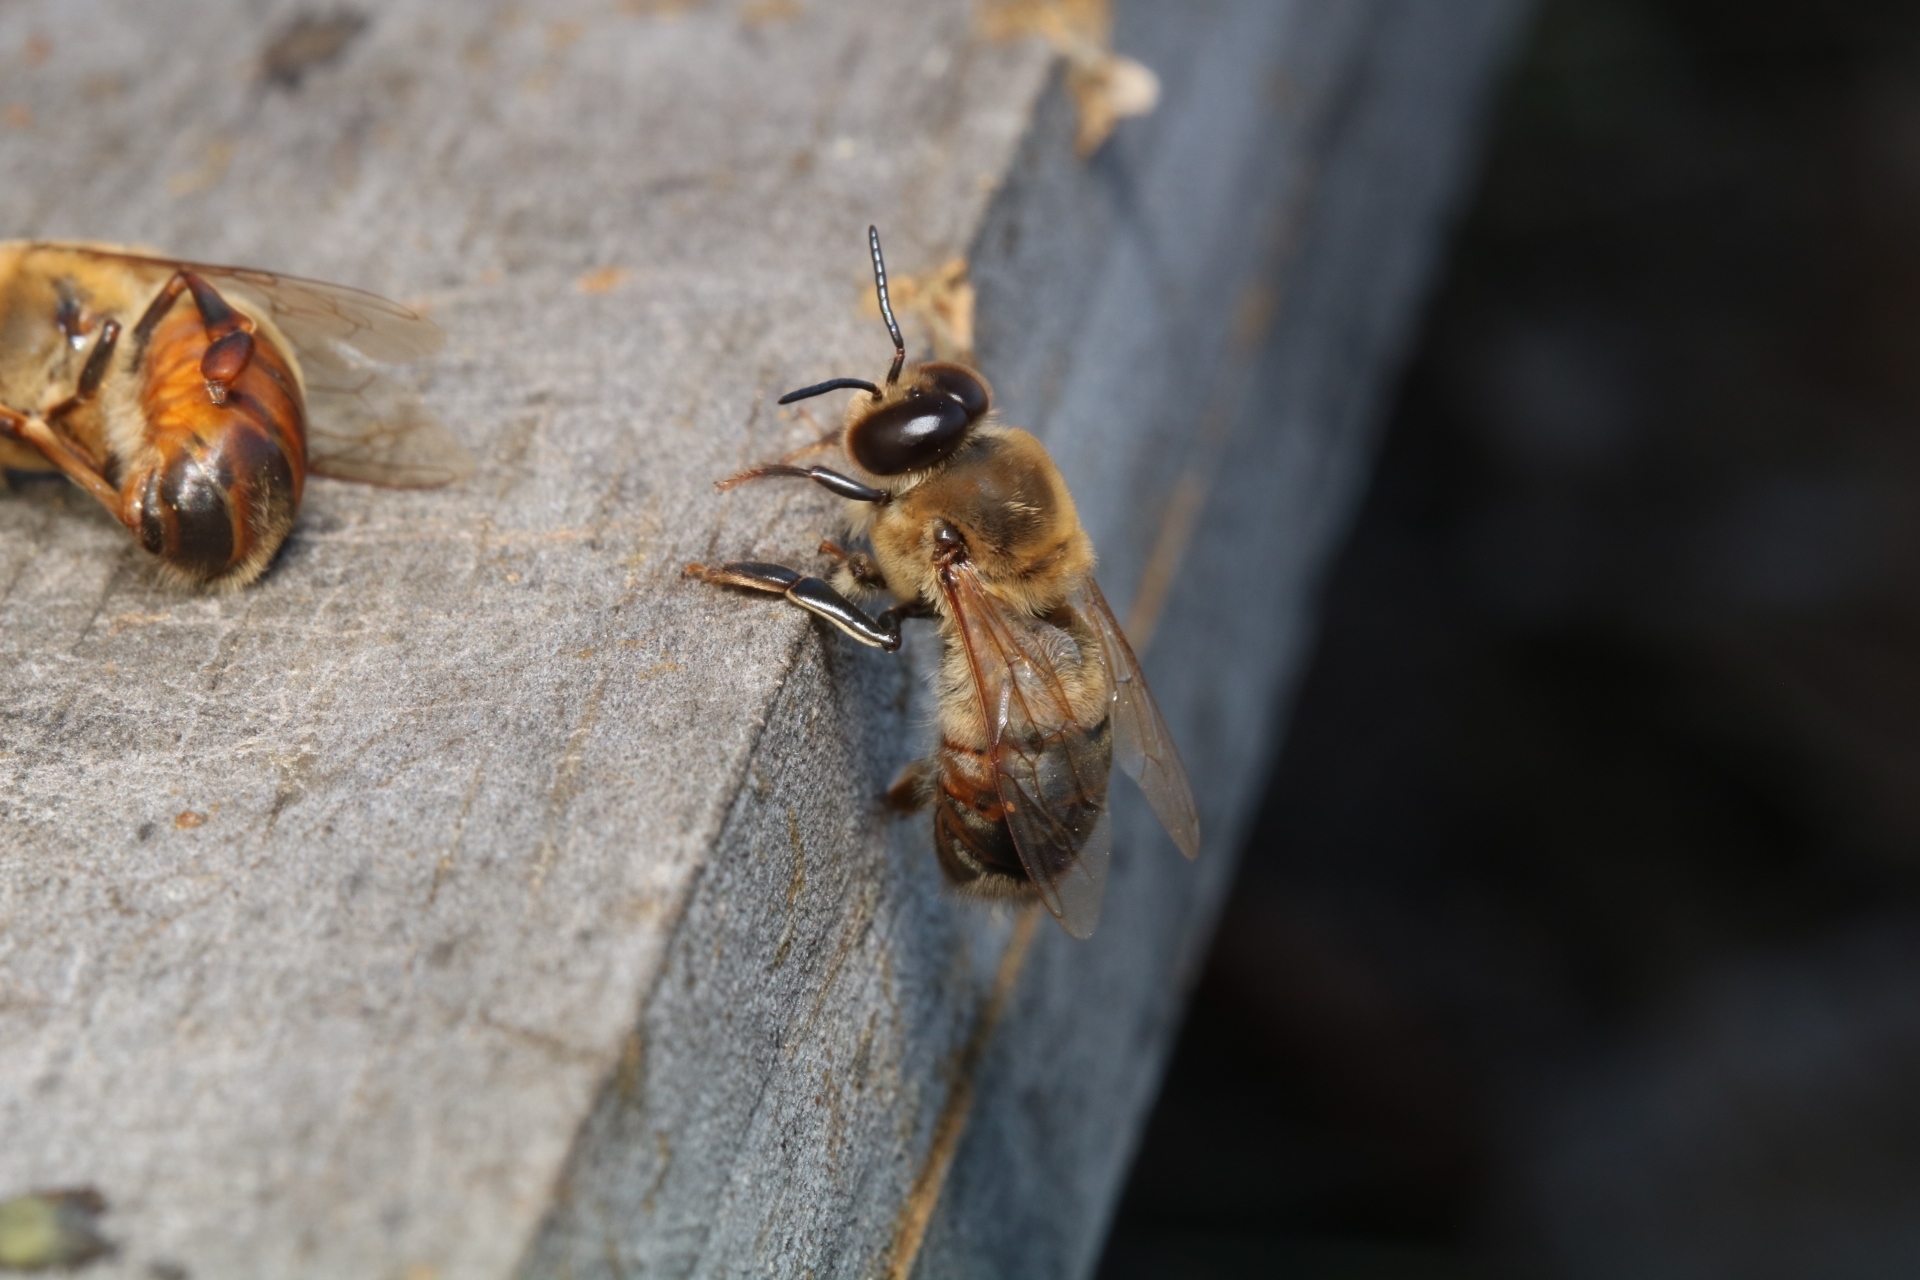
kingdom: Animalia
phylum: Arthropoda
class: Insecta
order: Hymenoptera
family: Apidae
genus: Apis
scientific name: Apis mellifera
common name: Honey bee
